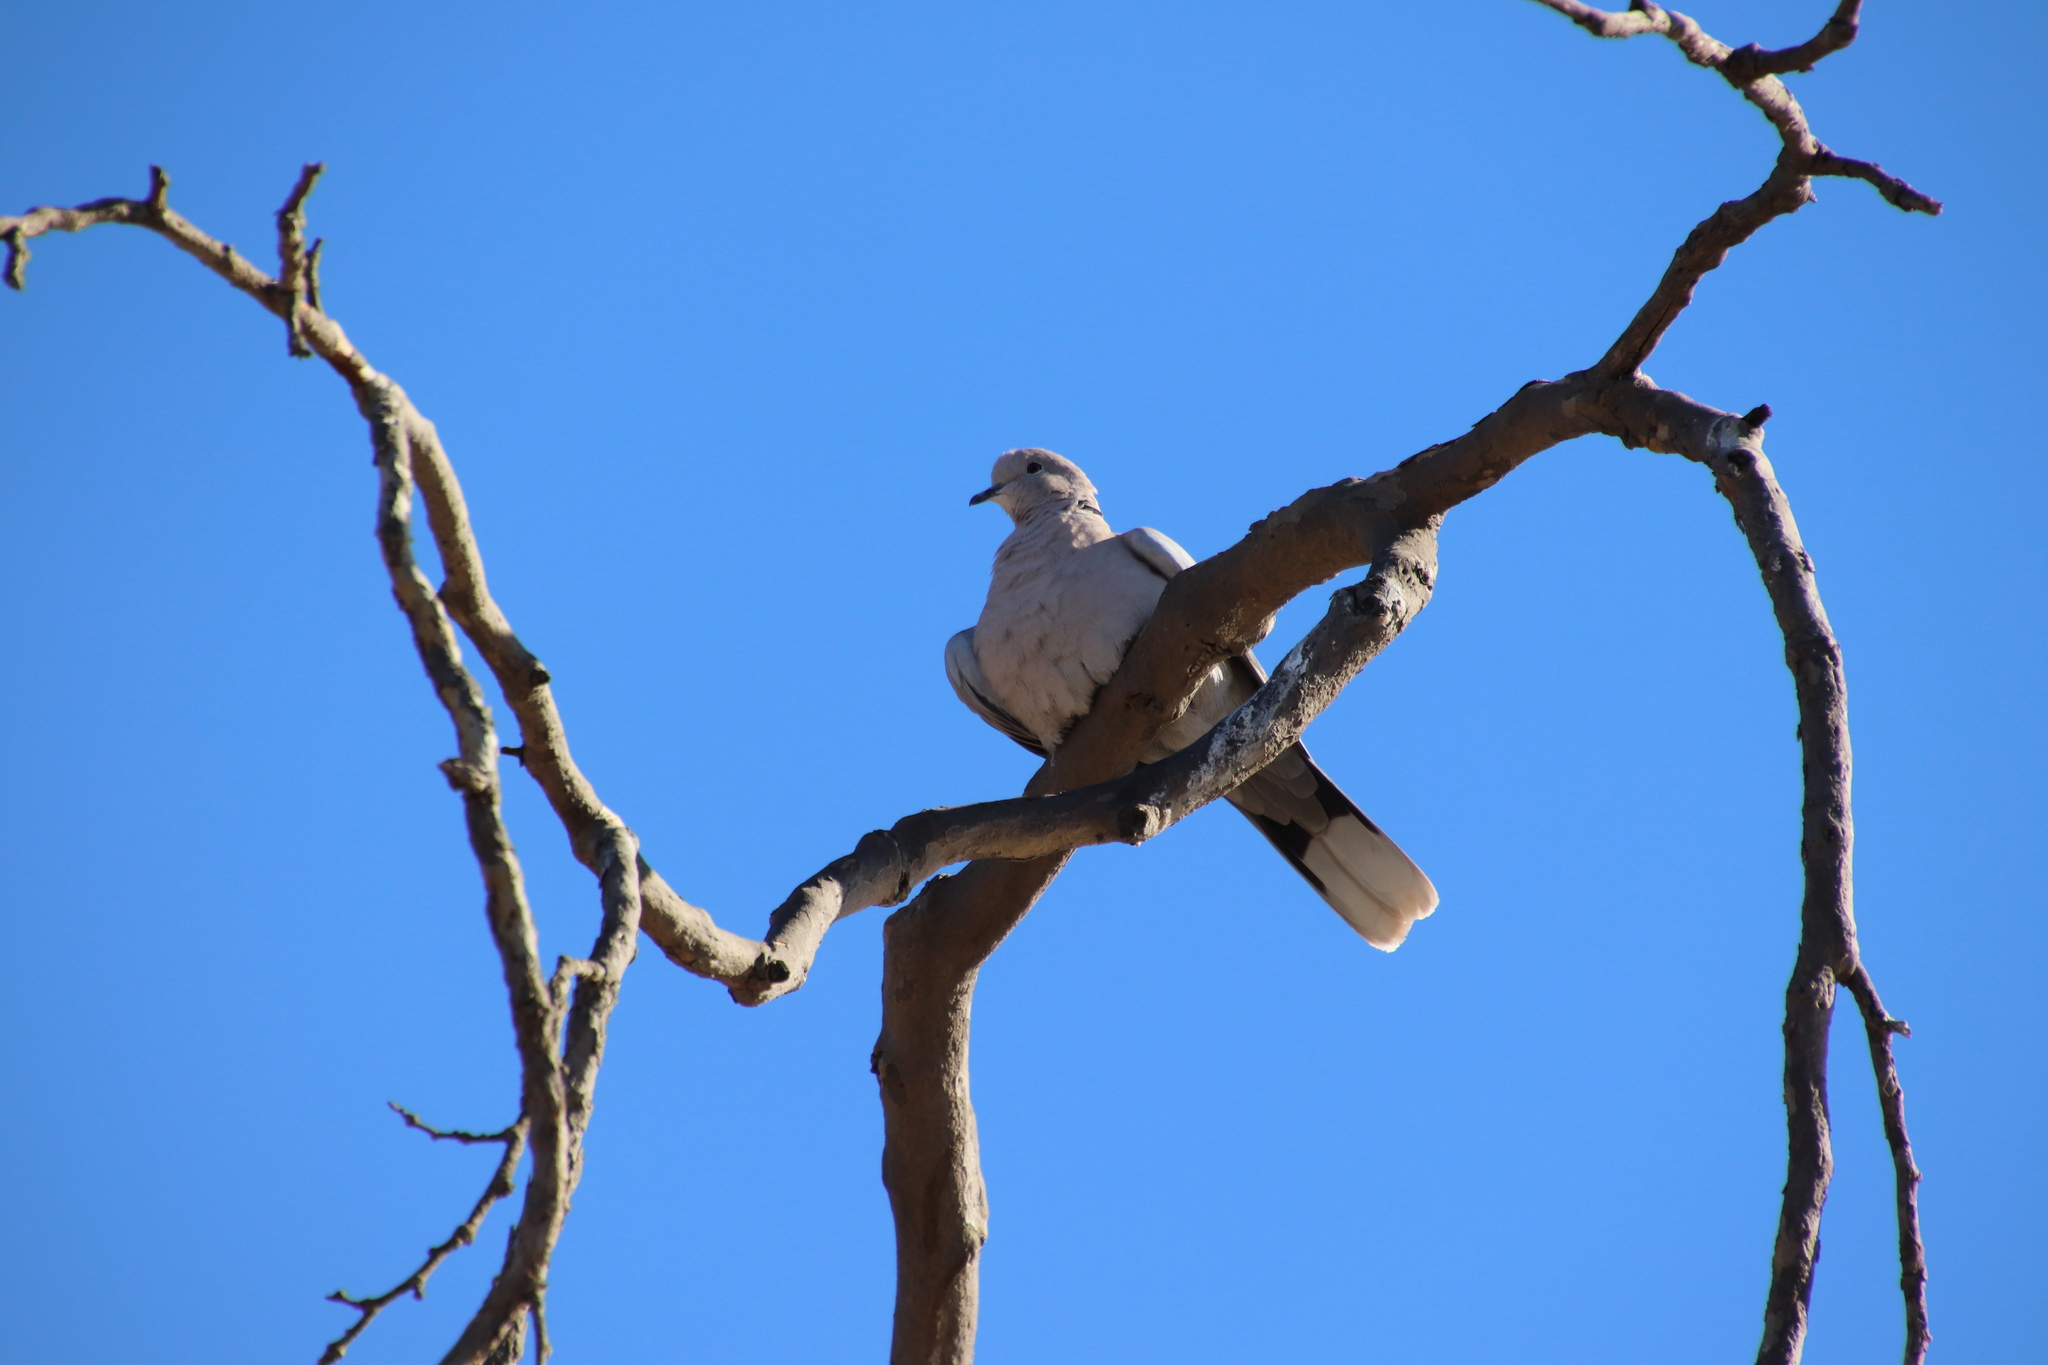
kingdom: Animalia
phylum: Chordata
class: Aves
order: Columbiformes
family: Columbidae
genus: Streptopelia
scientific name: Streptopelia decaocto
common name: Eurasian collared dove
